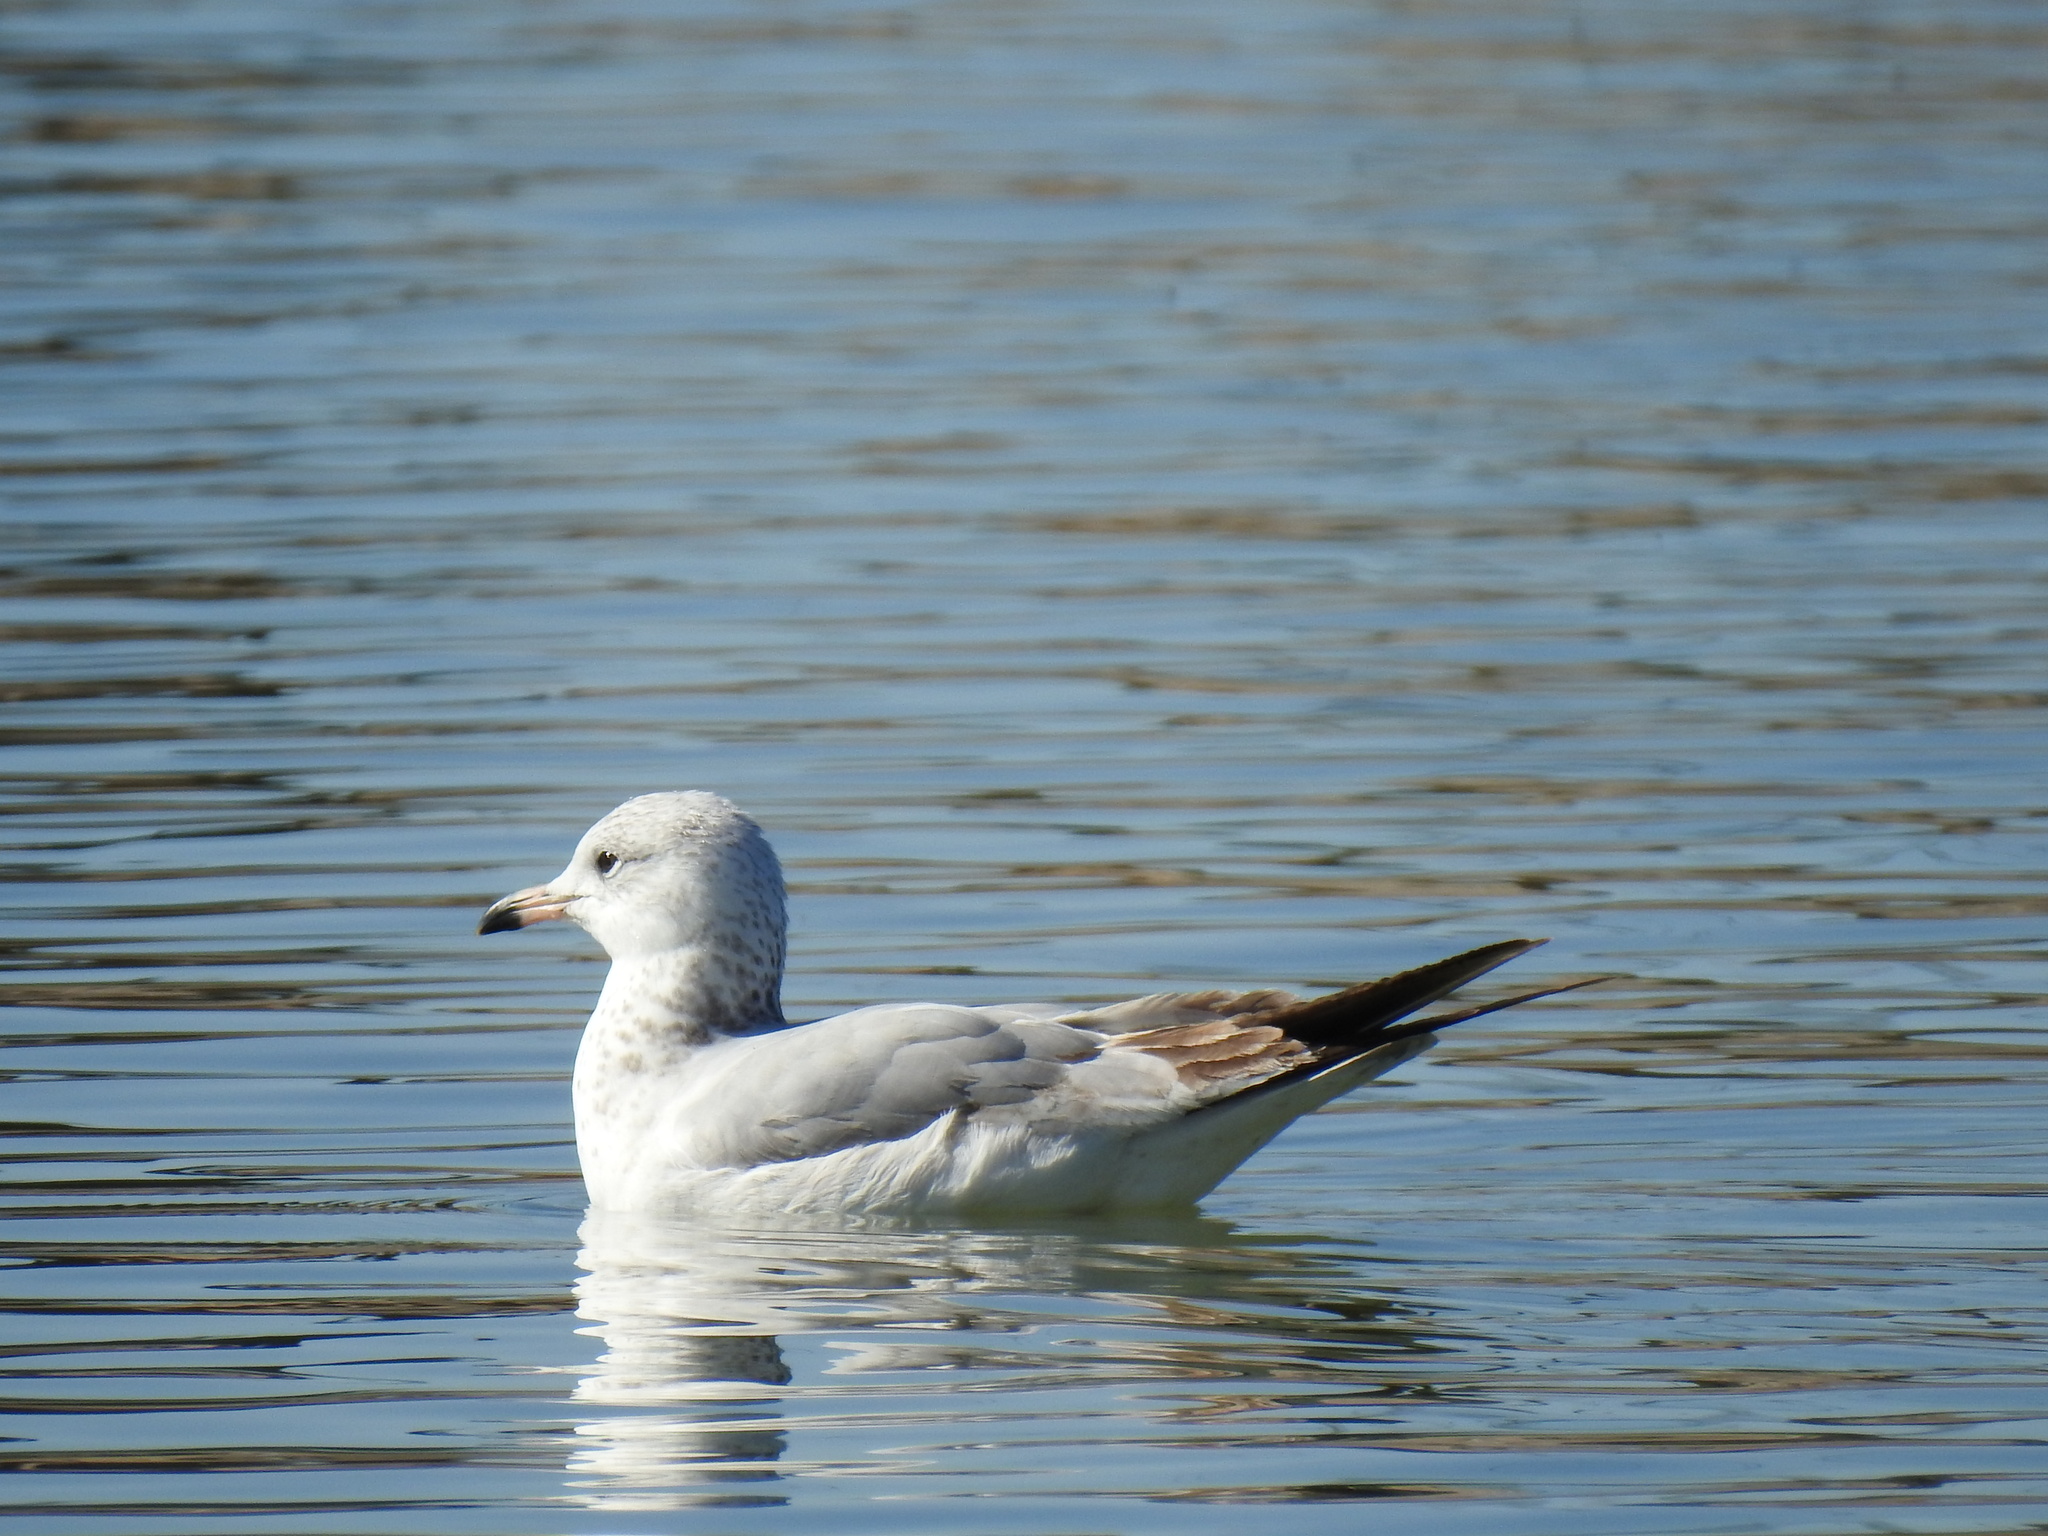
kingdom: Animalia
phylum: Chordata
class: Aves
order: Charadriiformes
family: Laridae
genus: Larus
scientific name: Larus delawarensis
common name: Ring-billed gull
